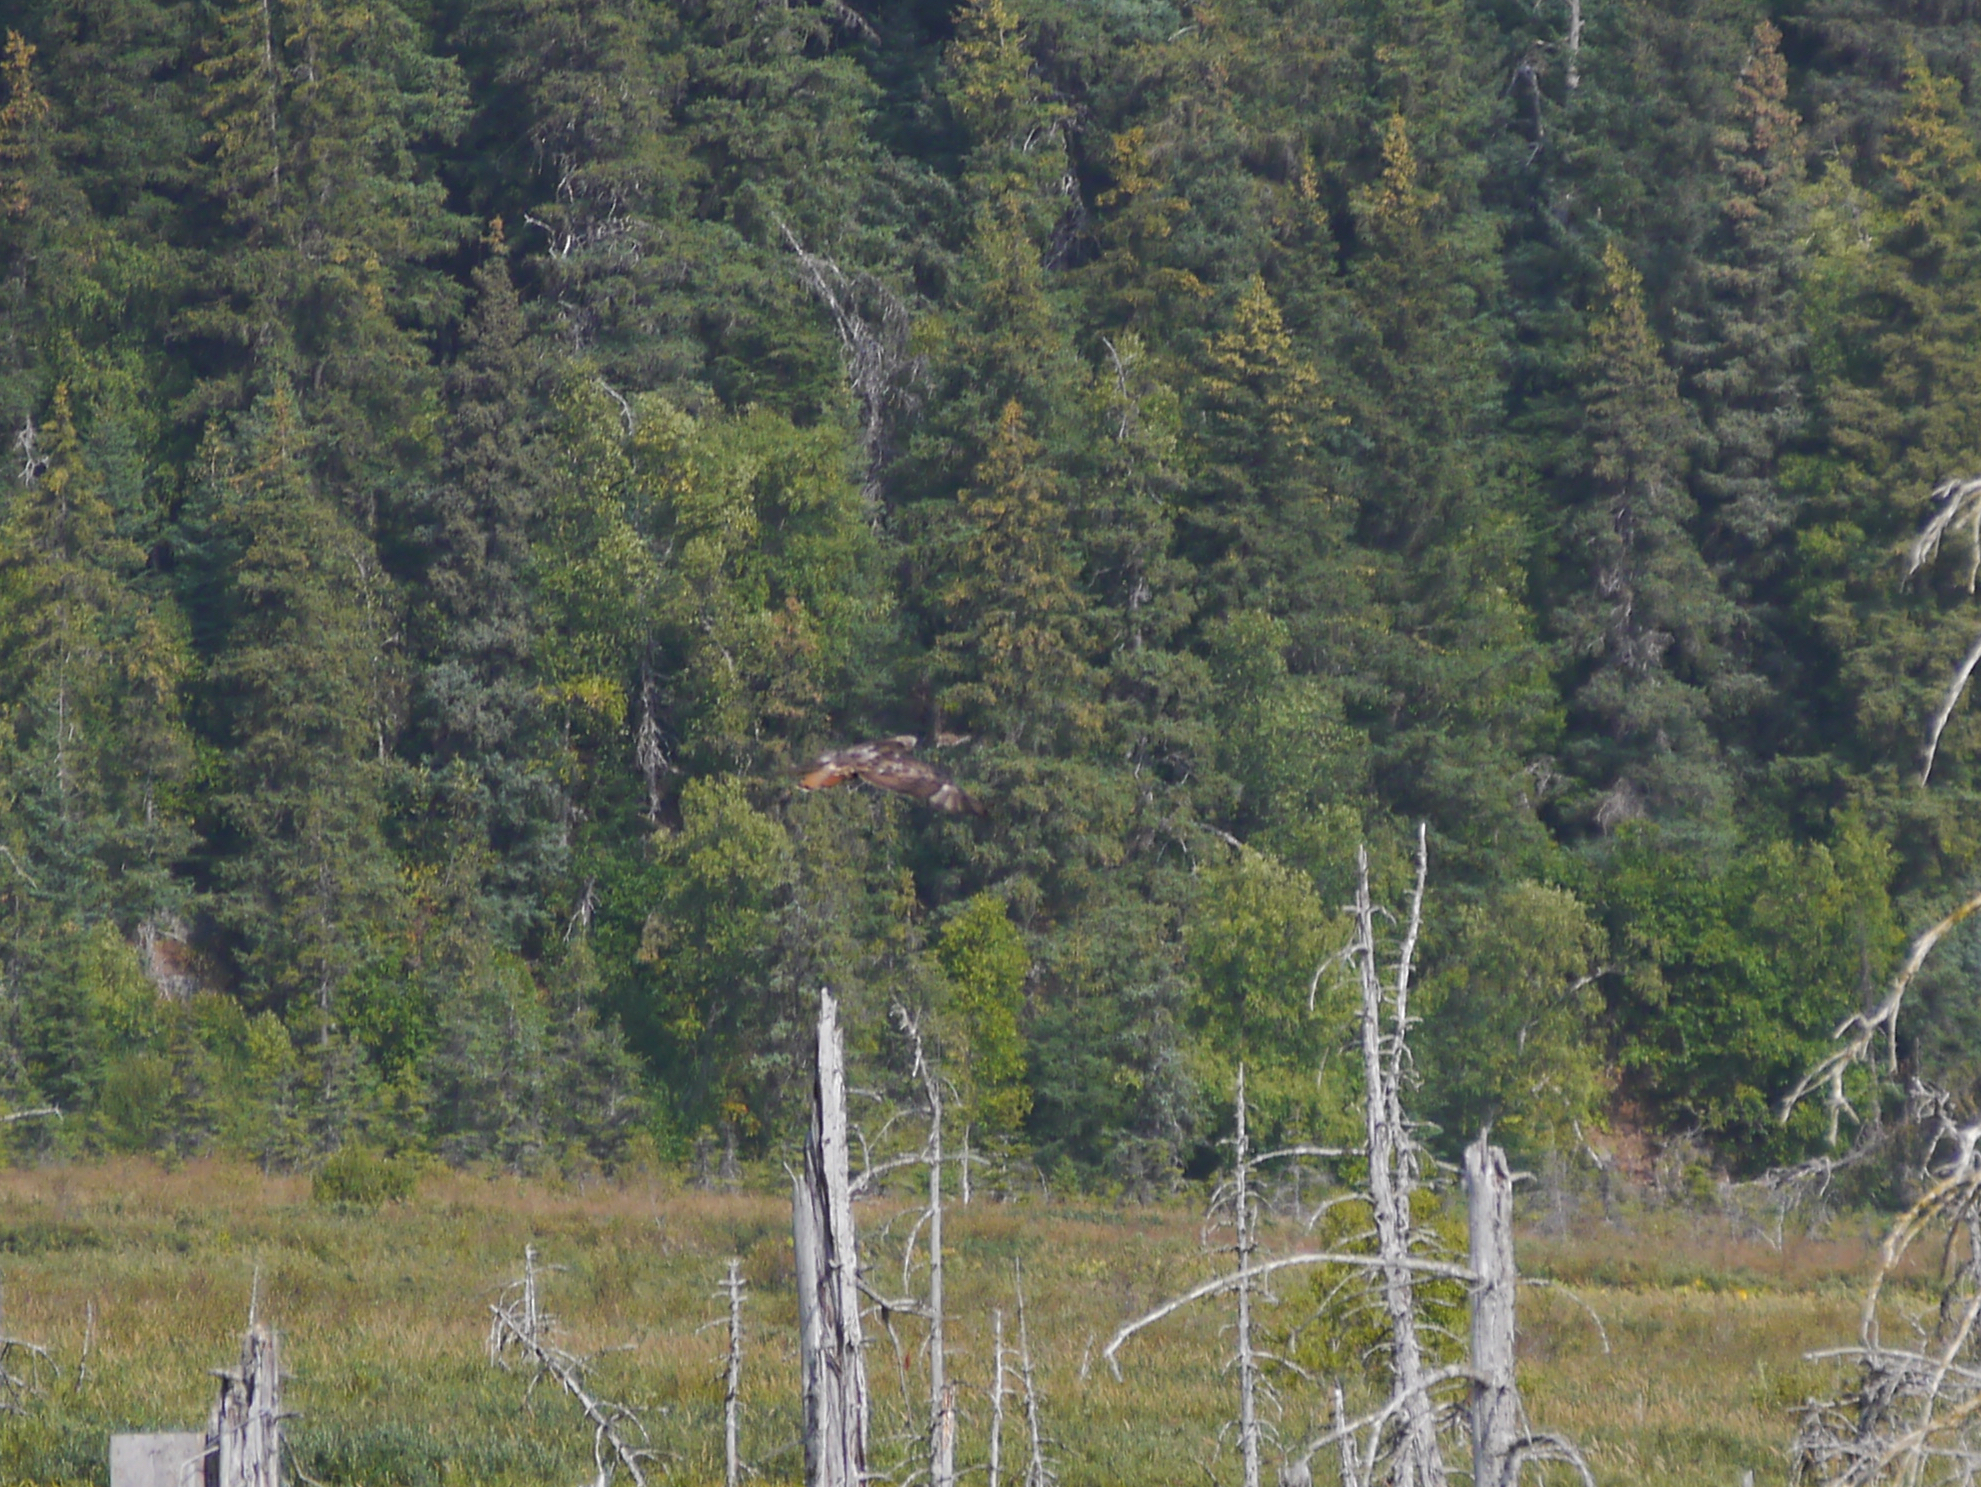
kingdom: Animalia
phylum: Chordata
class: Aves
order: Accipitriformes
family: Accipitridae
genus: Buteo
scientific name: Buteo jamaicensis
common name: Red-tailed hawk
